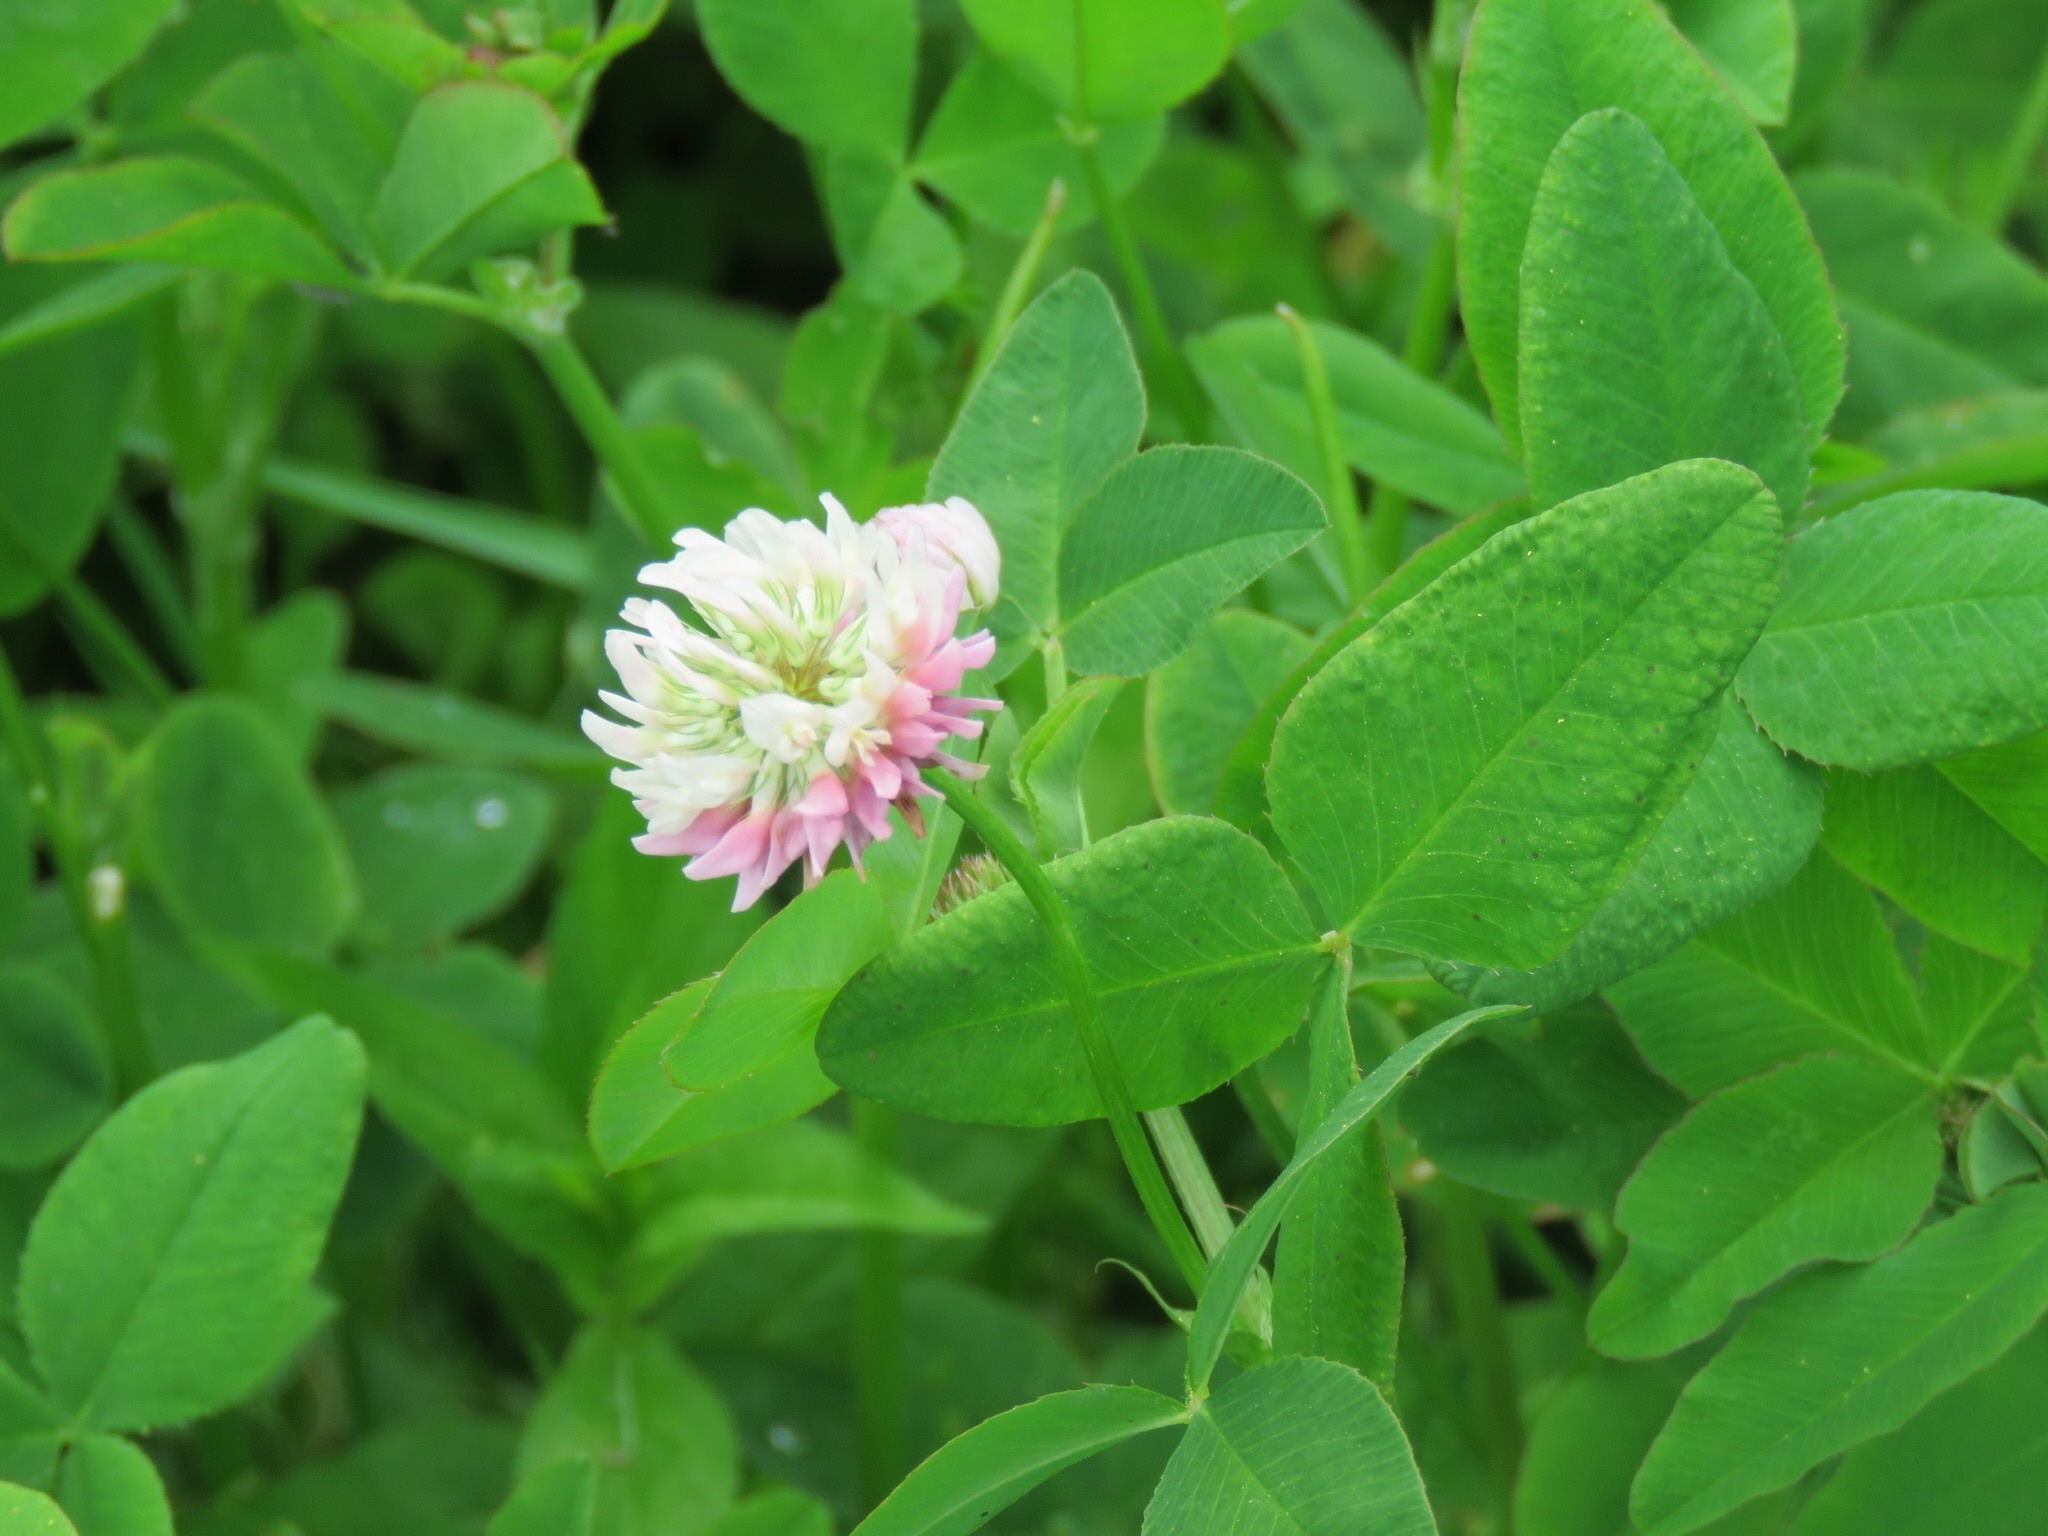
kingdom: Plantae
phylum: Tracheophyta
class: Magnoliopsida
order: Fabales
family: Fabaceae
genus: Trifolium
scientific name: Trifolium hybridum
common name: Alsike clover
